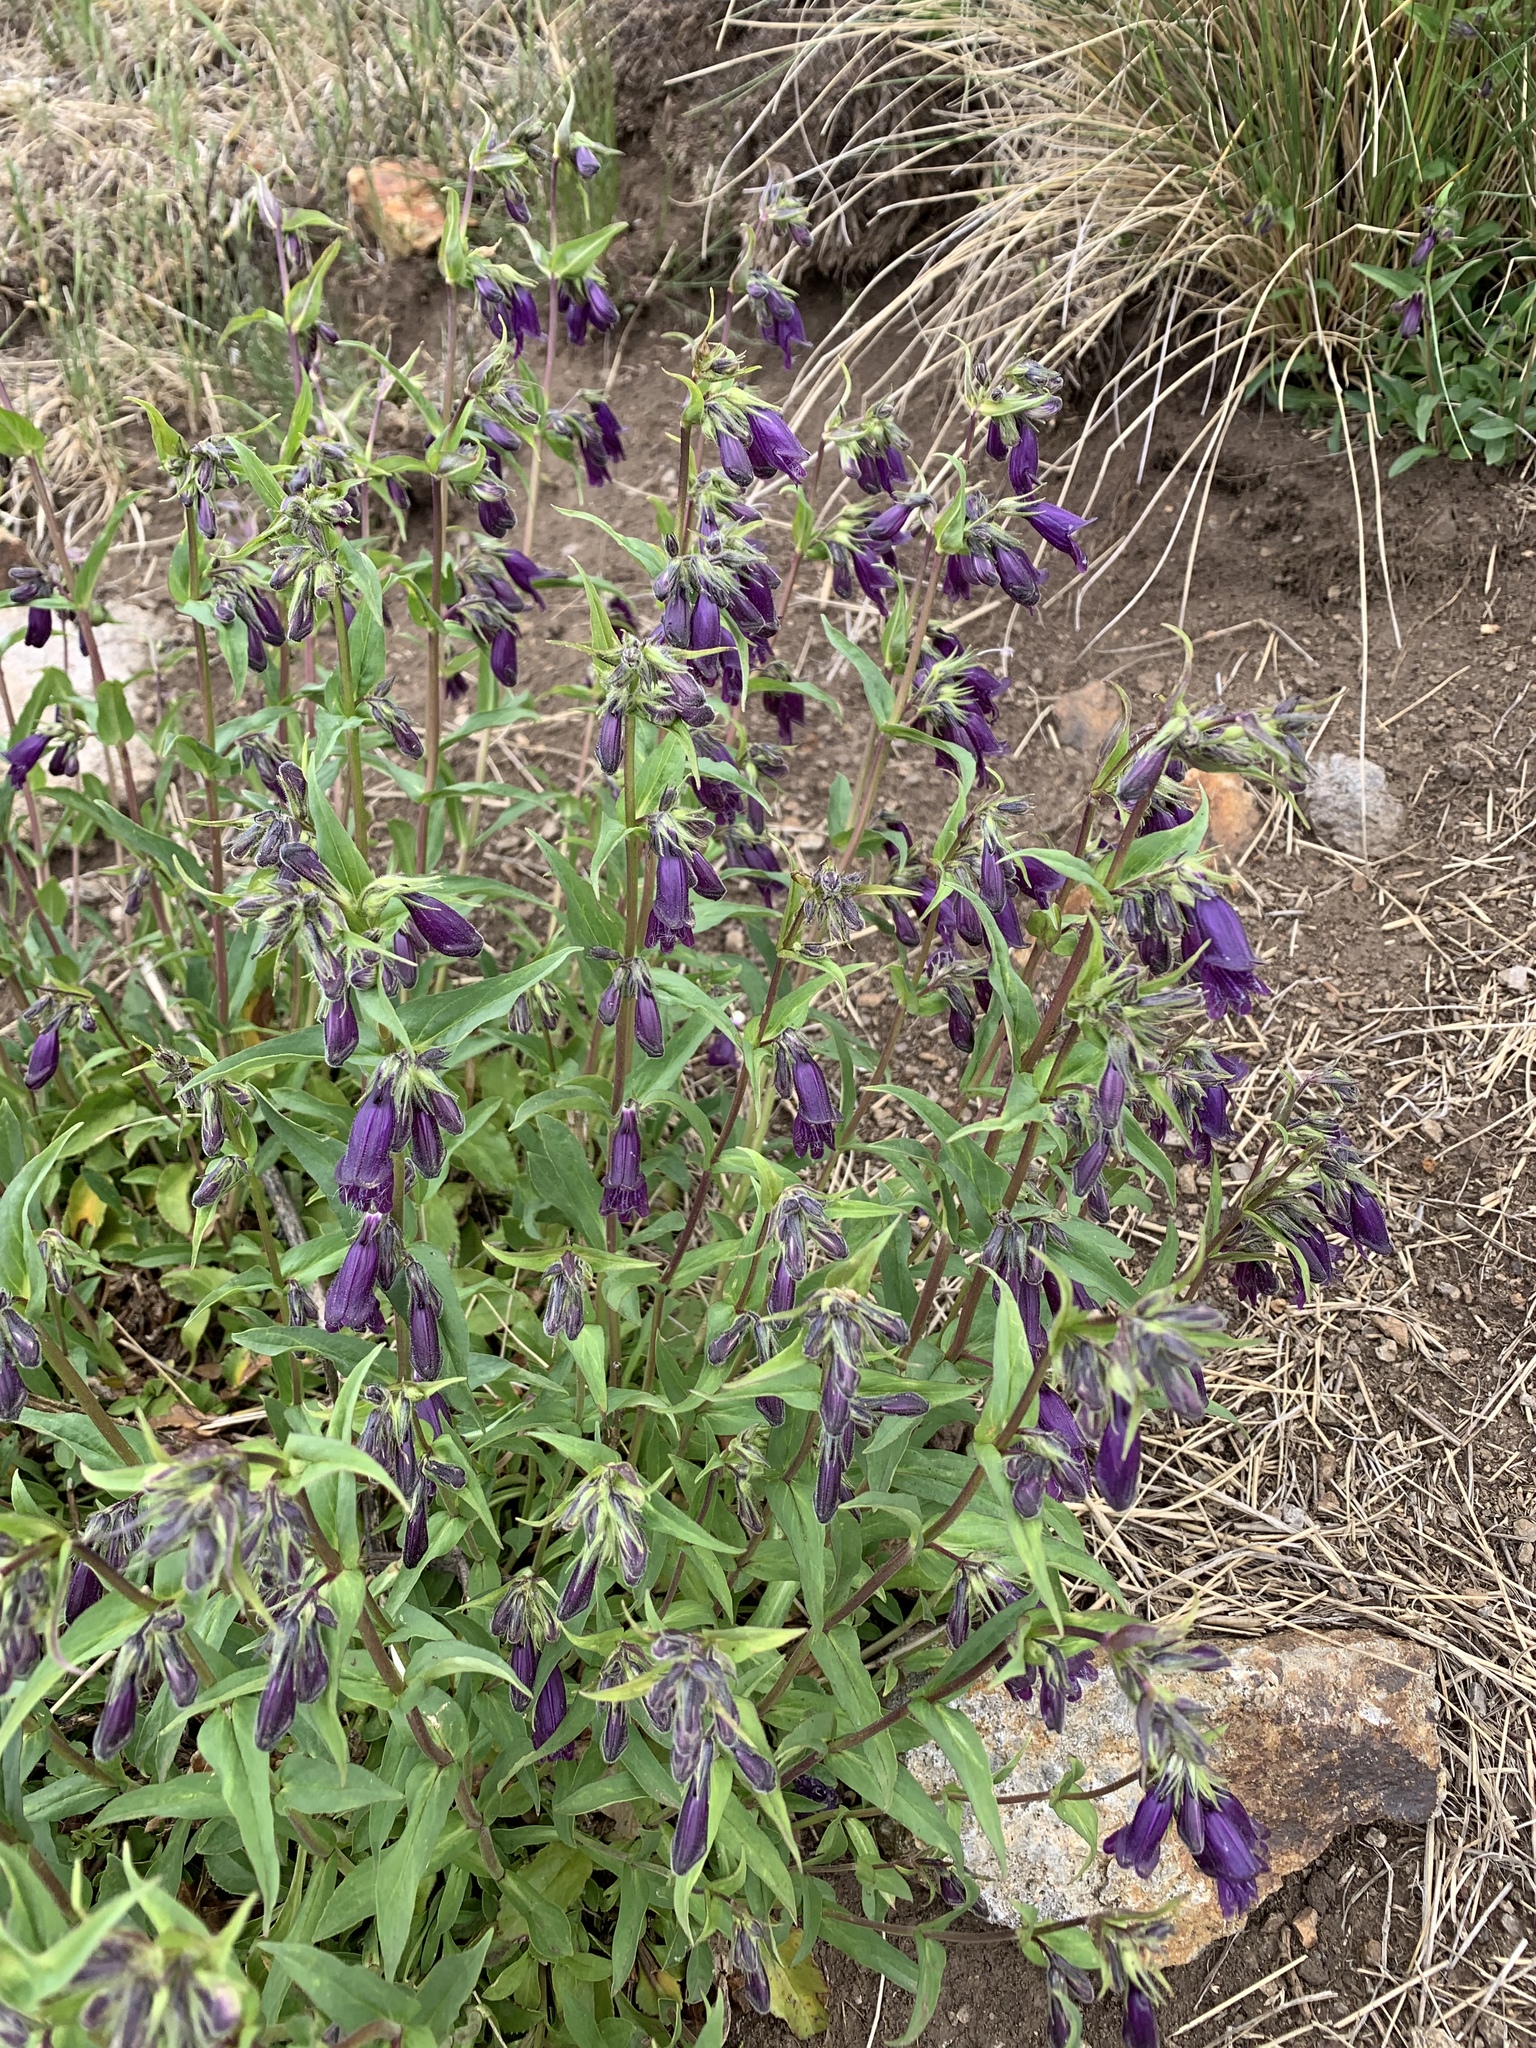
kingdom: Plantae
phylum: Tracheophyta
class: Magnoliopsida
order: Lamiales
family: Plantaginaceae
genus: Penstemon
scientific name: Penstemon whippleanus
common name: Whipple's penstemon
